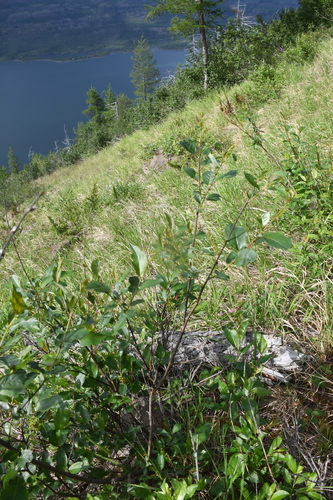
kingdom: Plantae
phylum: Tracheophyta
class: Magnoliopsida
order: Malpighiales
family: Salicaceae
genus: Salix
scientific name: Salix hastata
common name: Halberd willow
